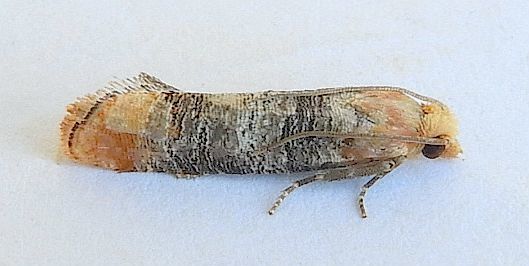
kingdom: Animalia
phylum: Arthropoda
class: Insecta
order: Lepidoptera
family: Tortricidae
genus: Retinia
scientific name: Retinia edemoidana
